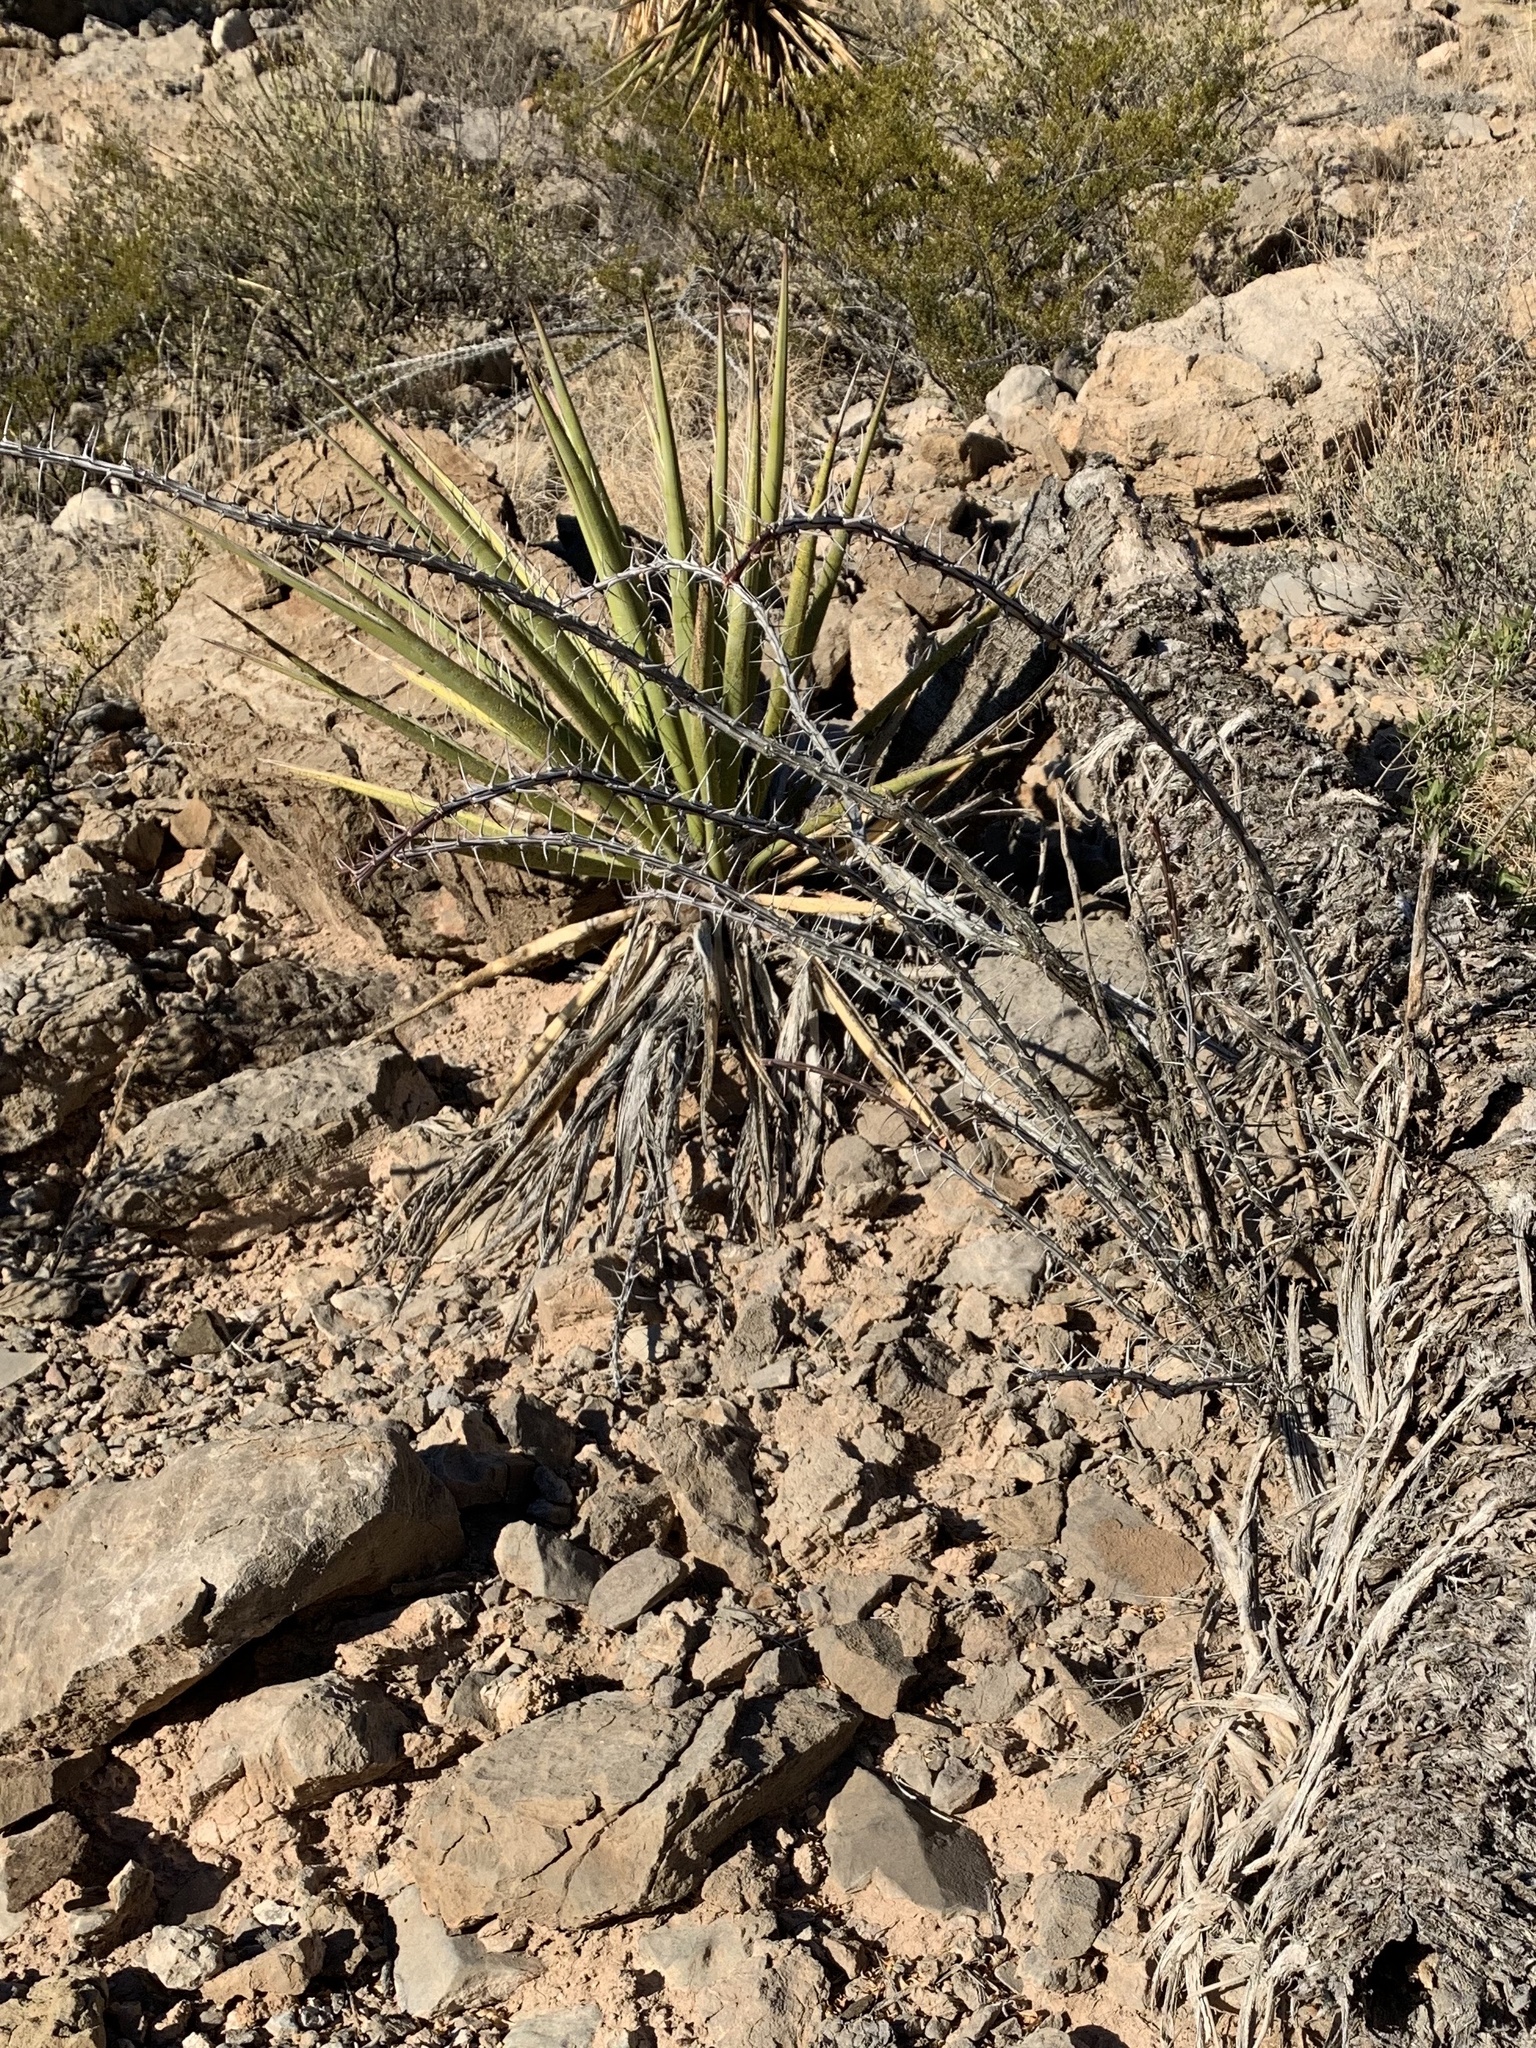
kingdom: Plantae
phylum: Tracheophyta
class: Magnoliopsida
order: Ericales
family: Fouquieriaceae
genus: Fouquieria
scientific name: Fouquieria splendens
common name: Vine-cactus
